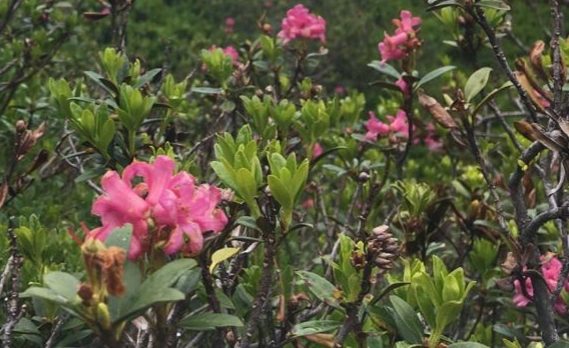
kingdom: Plantae
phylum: Tracheophyta
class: Magnoliopsida
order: Ericales
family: Ericaceae
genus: Rhododendron
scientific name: Rhododendron ferrugineum
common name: Alpenrose
